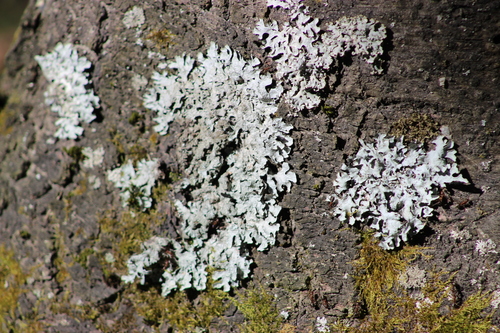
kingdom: Fungi
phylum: Ascomycota
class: Lecanoromycetes
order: Lecanorales
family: Parmeliaceae
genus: Parmelia
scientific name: Parmelia
